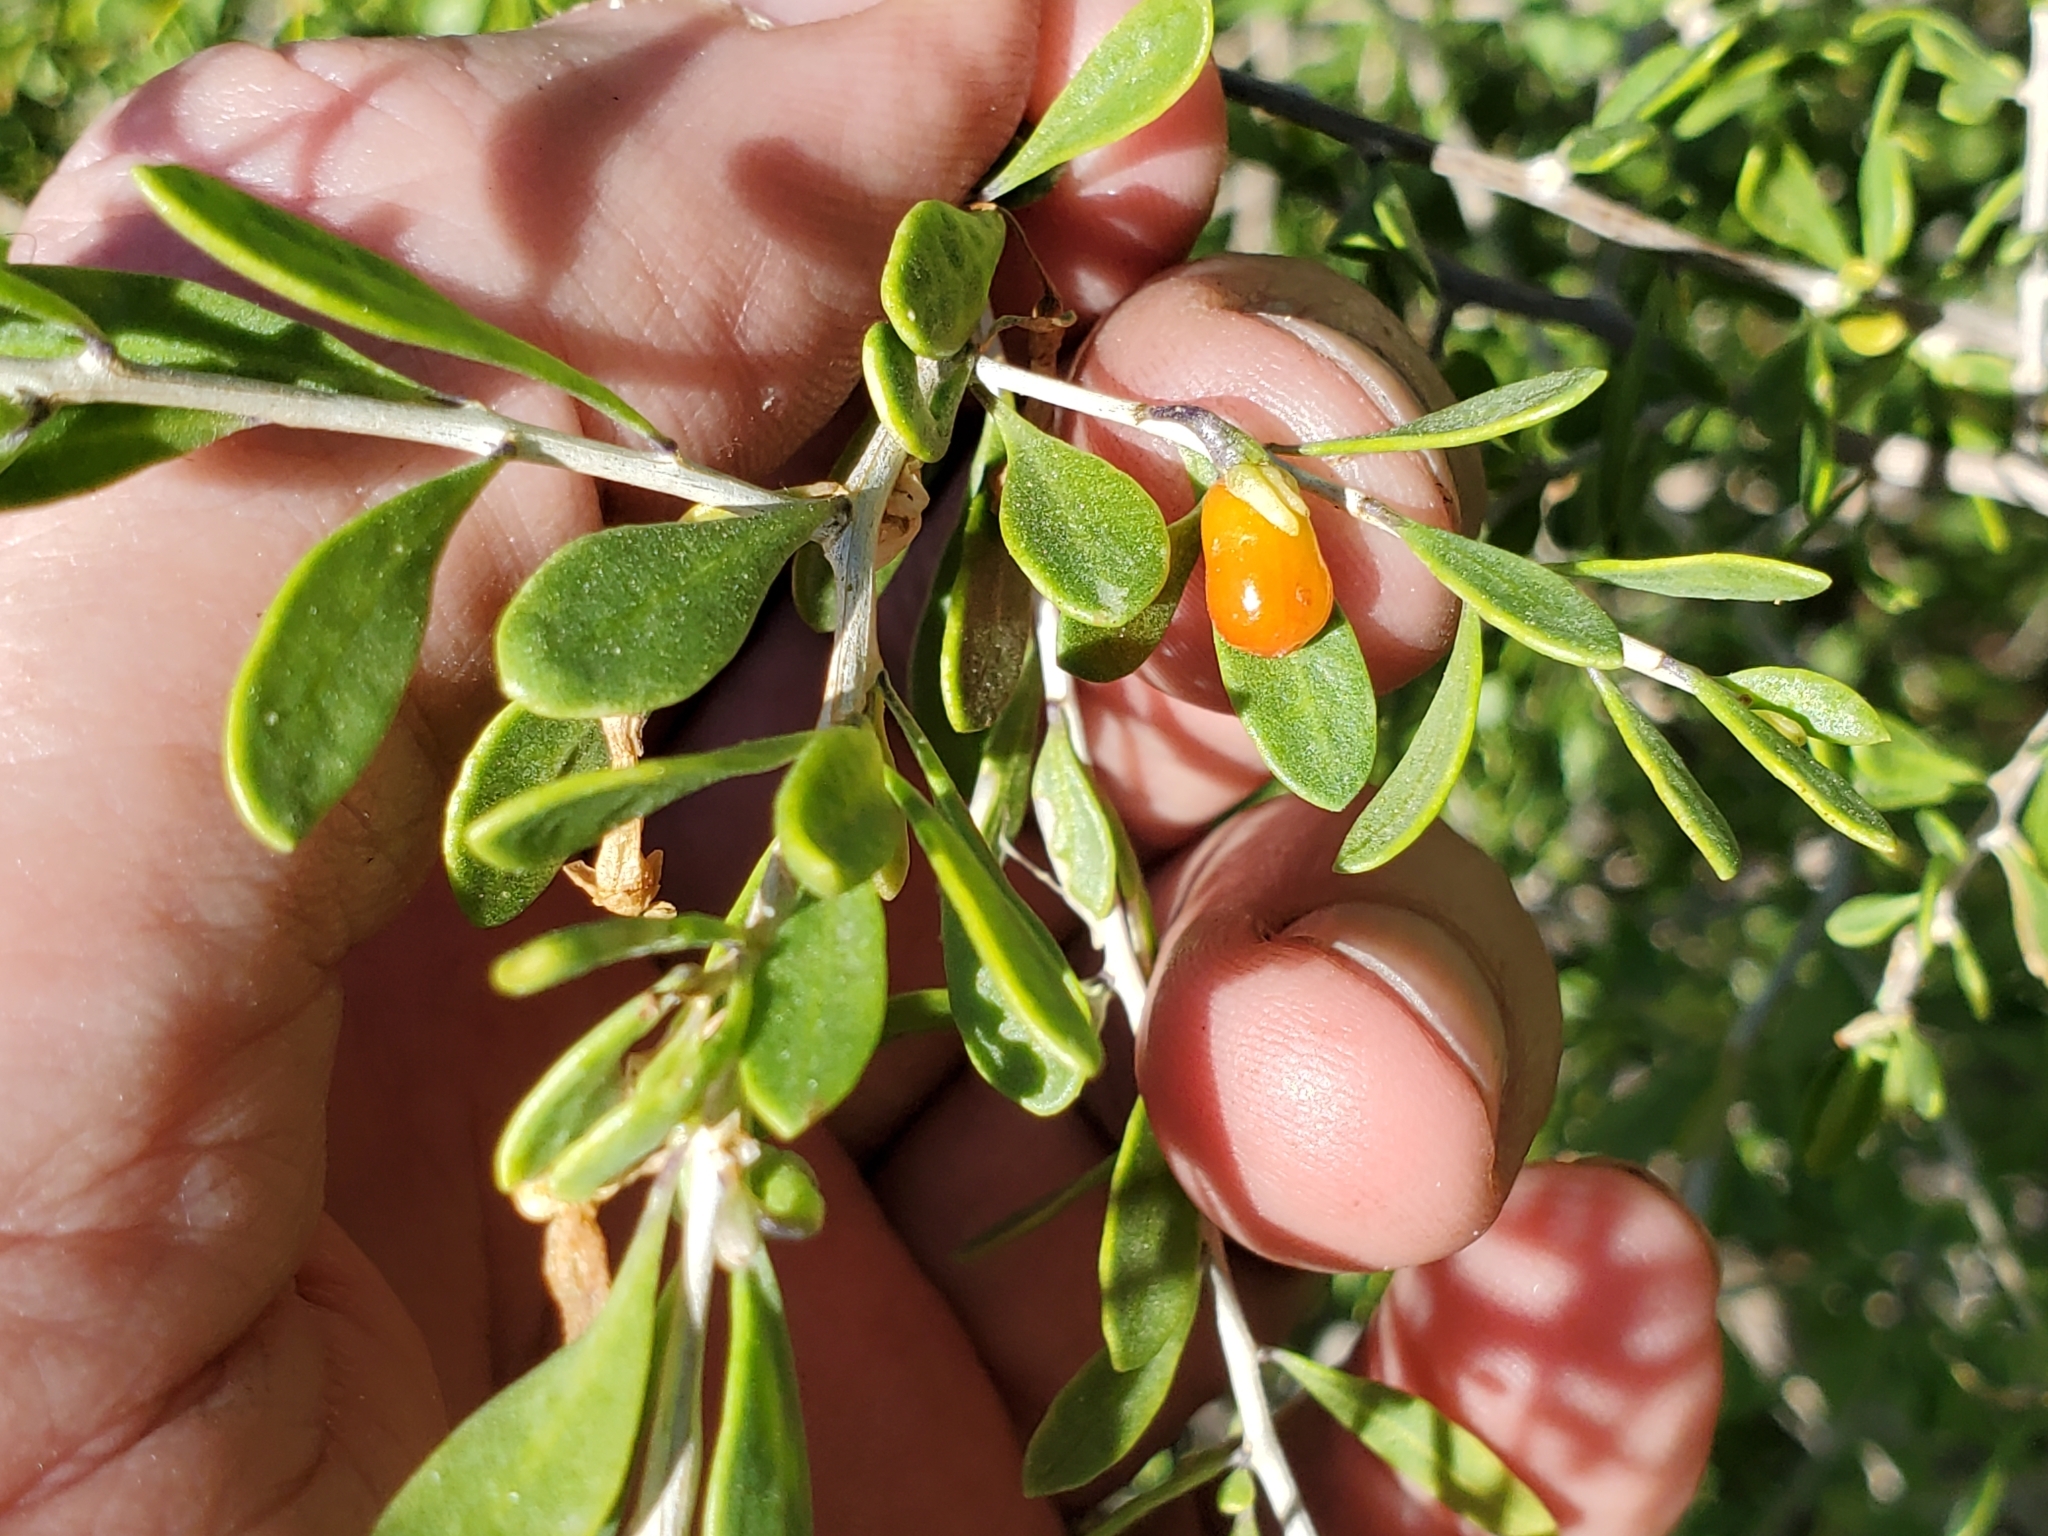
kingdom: Plantae
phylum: Tracheophyta
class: Magnoliopsida
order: Solanales
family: Solanaceae
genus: Lycium
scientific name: Lycium andersonii
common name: Water-jacket
